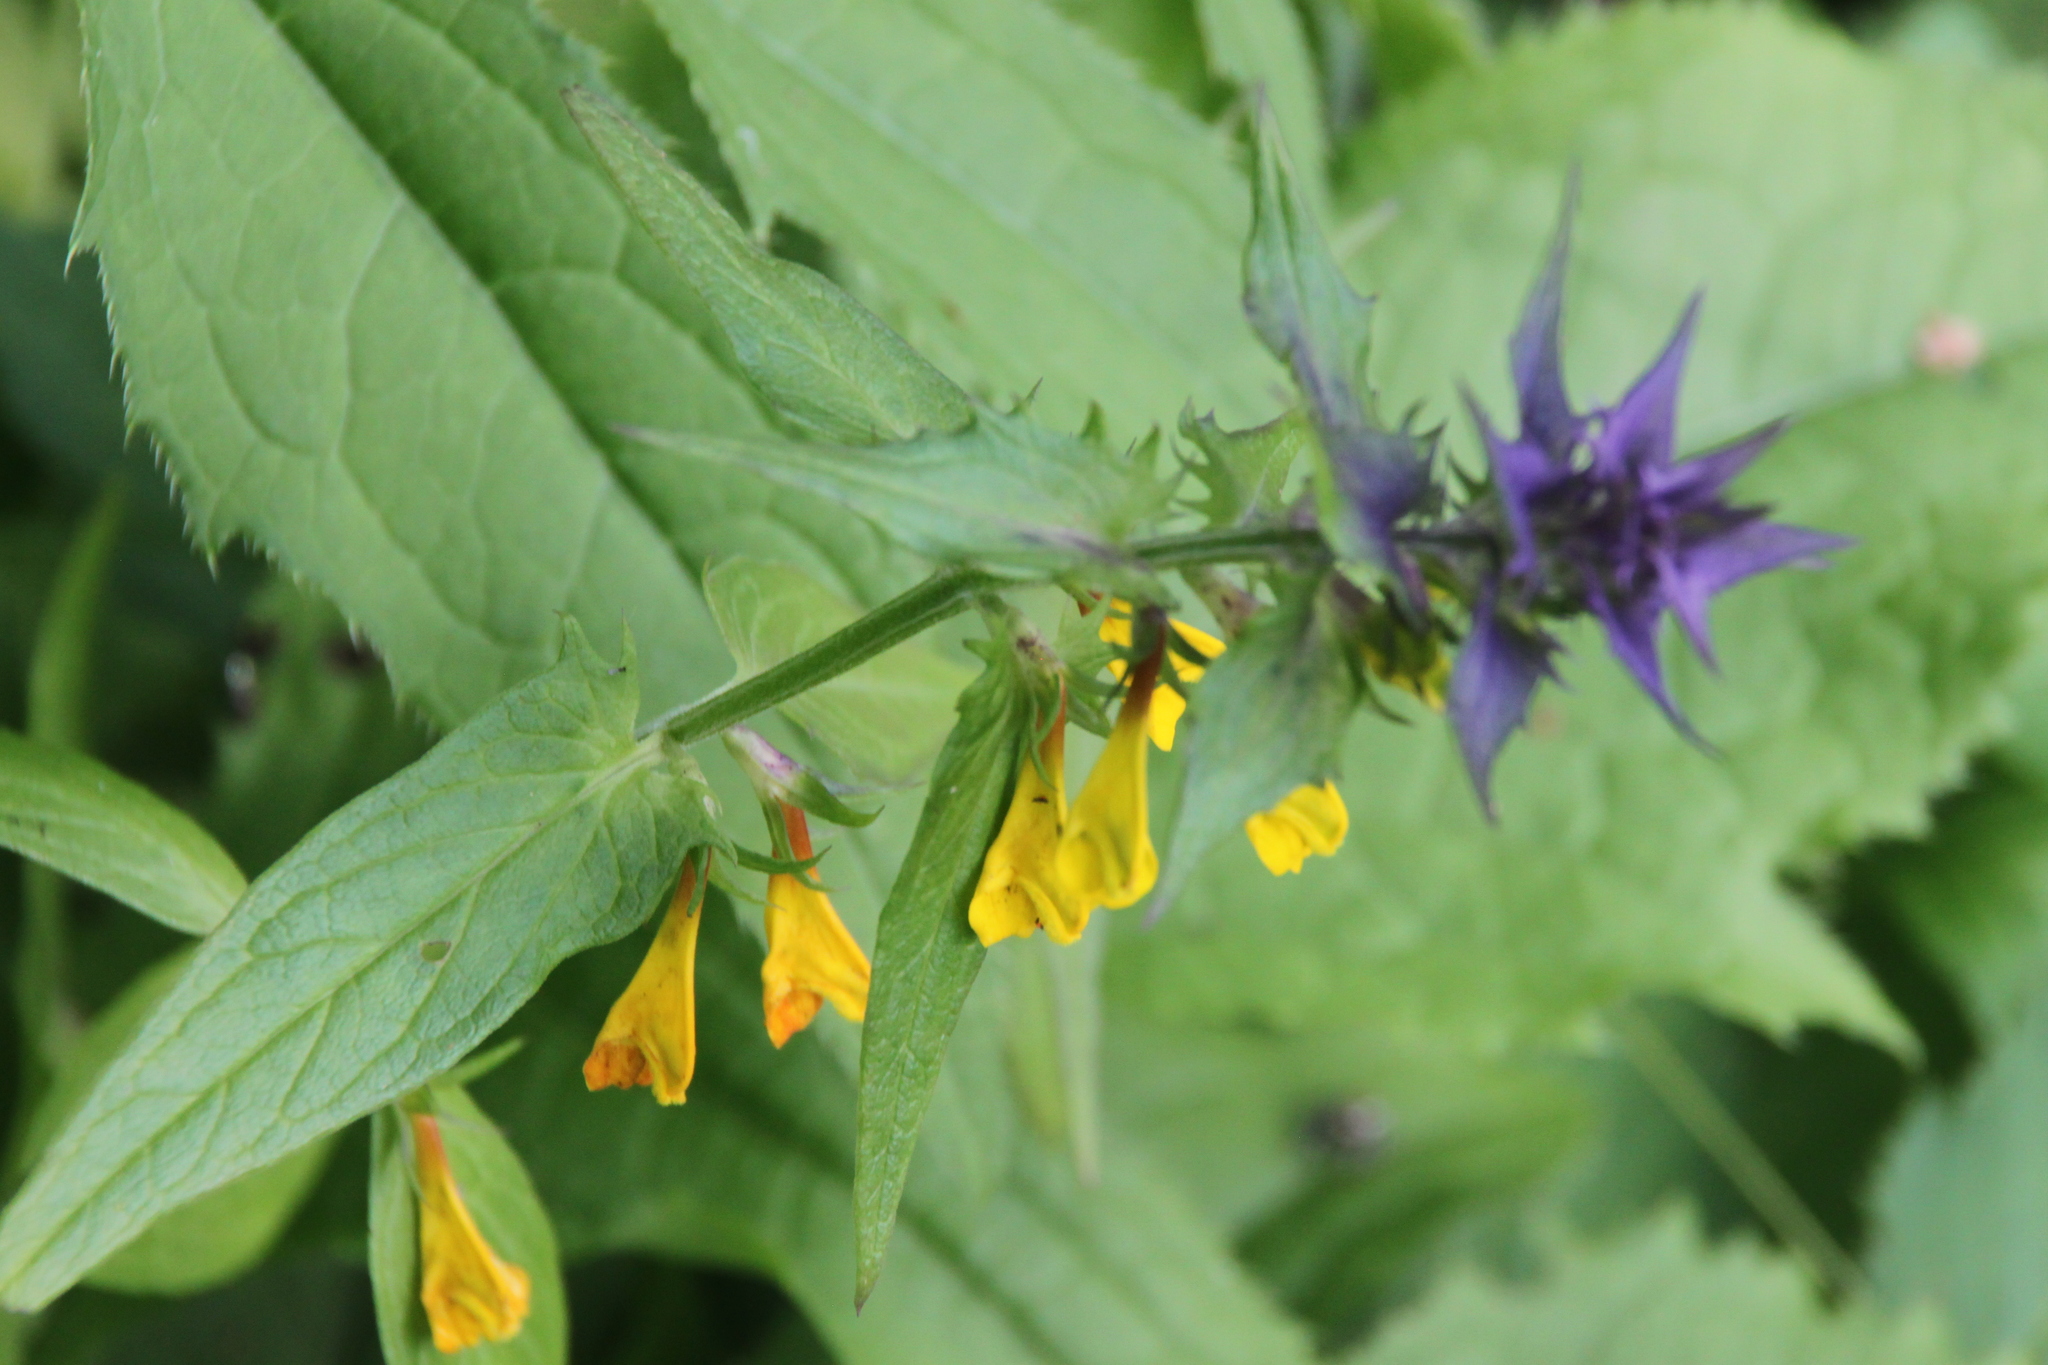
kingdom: Plantae
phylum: Tracheophyta
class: Magnoliopsida
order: Lamiales
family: Orobanchaceae
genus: Melampyrum
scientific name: Melampyrum nemorosum
